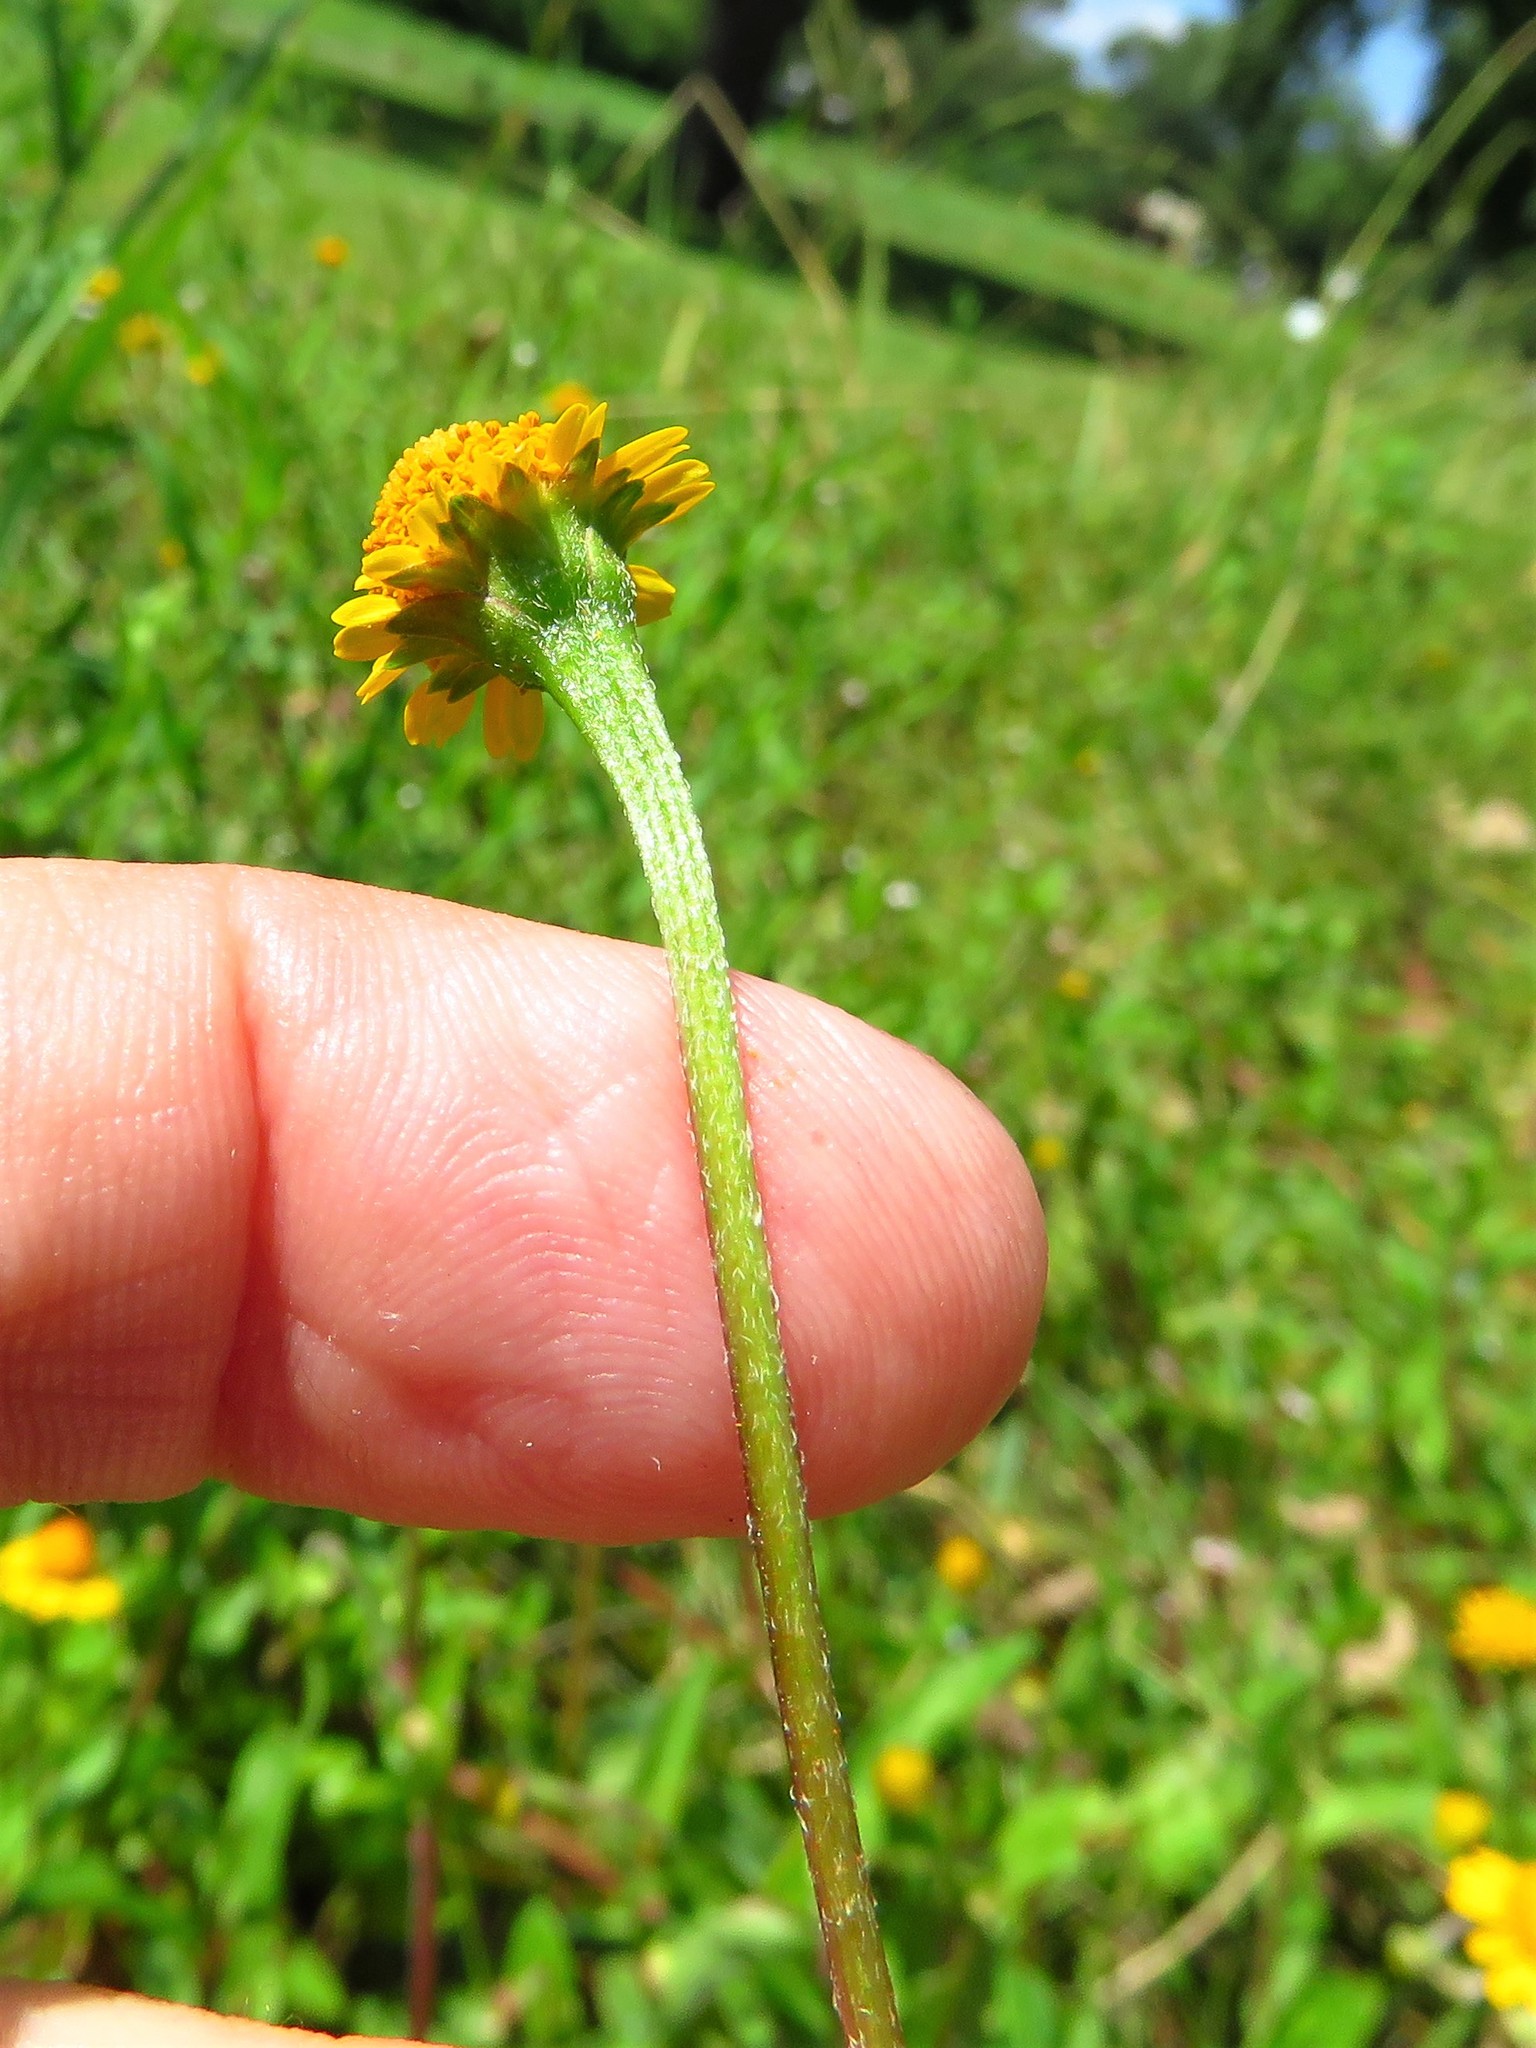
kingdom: Plantae
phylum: Tracheophyta
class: Magnoliopsida
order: Asterales
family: Asteraceae
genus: Acmella
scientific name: Acmella repens
